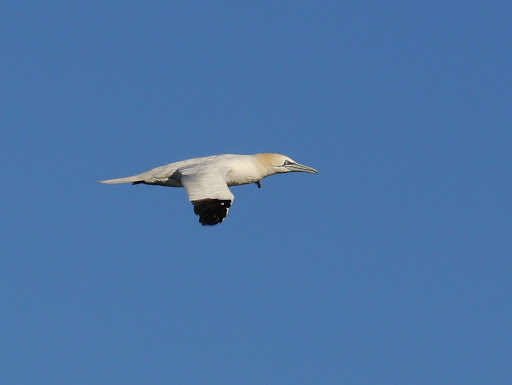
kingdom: Animalia
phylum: Chordata
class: Aves
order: Suliformes
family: Sulidae
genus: Morus
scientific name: Morus bassanus
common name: Northern gannet
